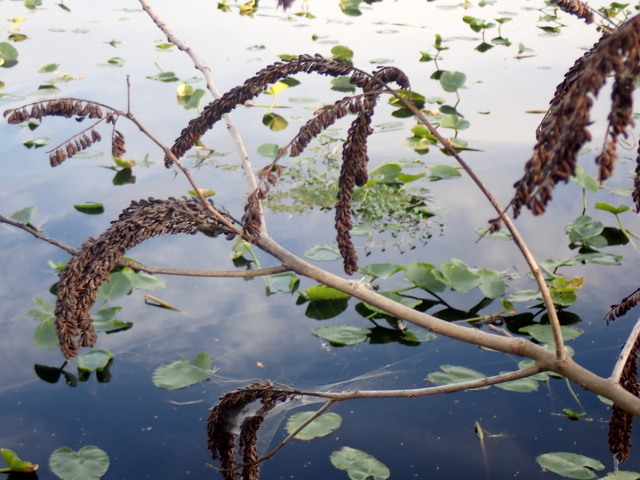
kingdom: Plantae
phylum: Tracheophyta
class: Magnoliopsida
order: Fabales
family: Fabaceae
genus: Amorpha
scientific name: Amorpha fruticosa
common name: False indigo
